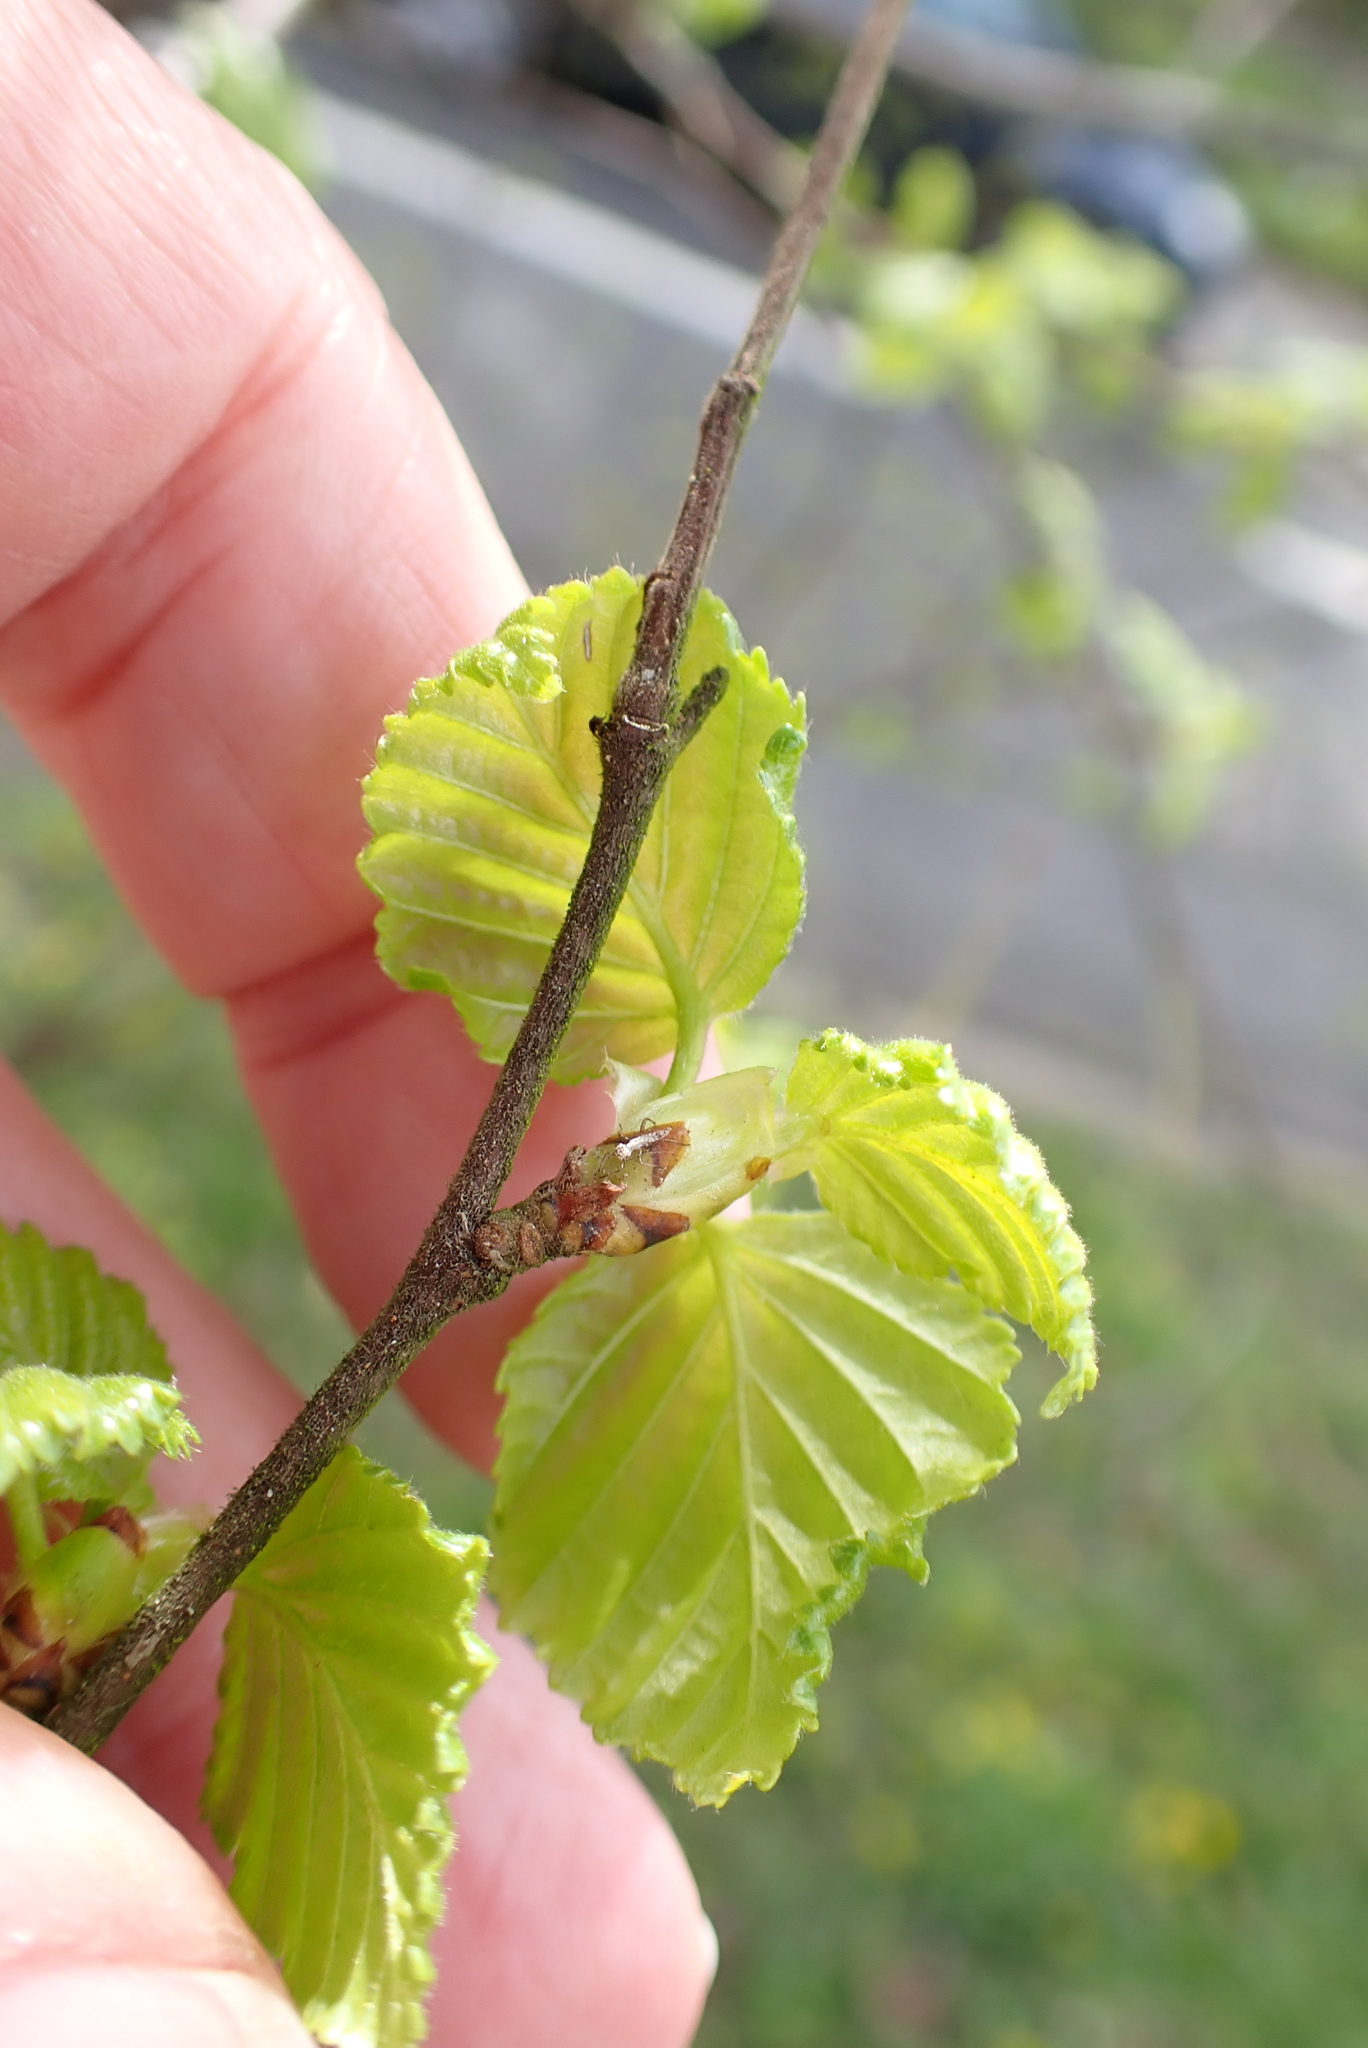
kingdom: Plantae
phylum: Tracheophyta
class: Magnoliopsida
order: Fagales
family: Betulaceae
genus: Betula
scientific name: Betula pubescens
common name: Downy birch
